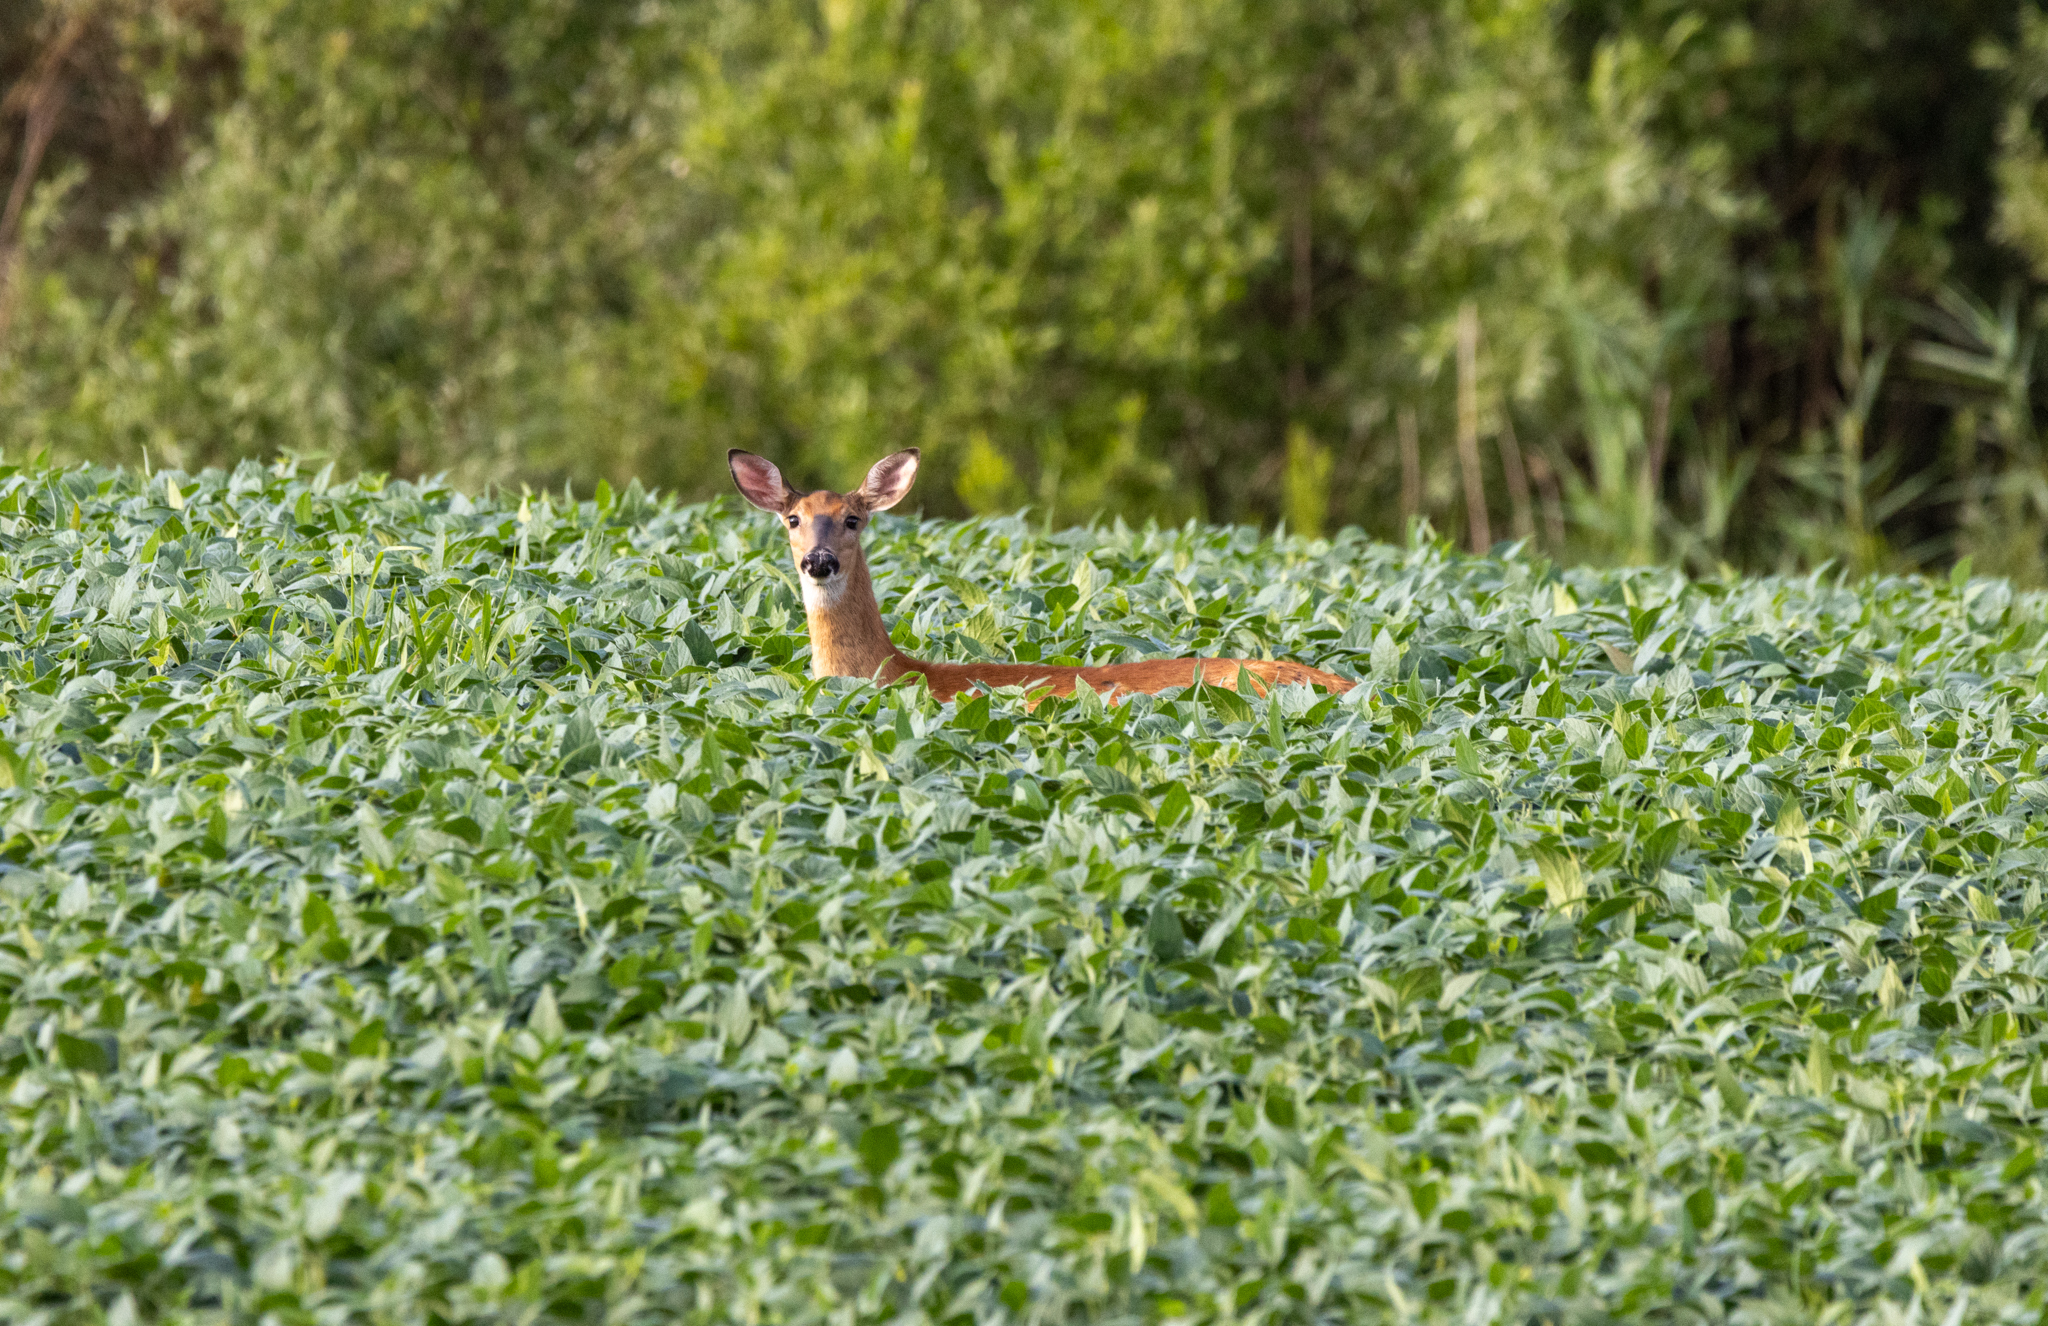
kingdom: Animalia
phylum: Chordata
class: Mammalia
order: Artiodactyla
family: Cervidae
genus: Odocoileus
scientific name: Odocoileus virginianus
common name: White-tailed deer
